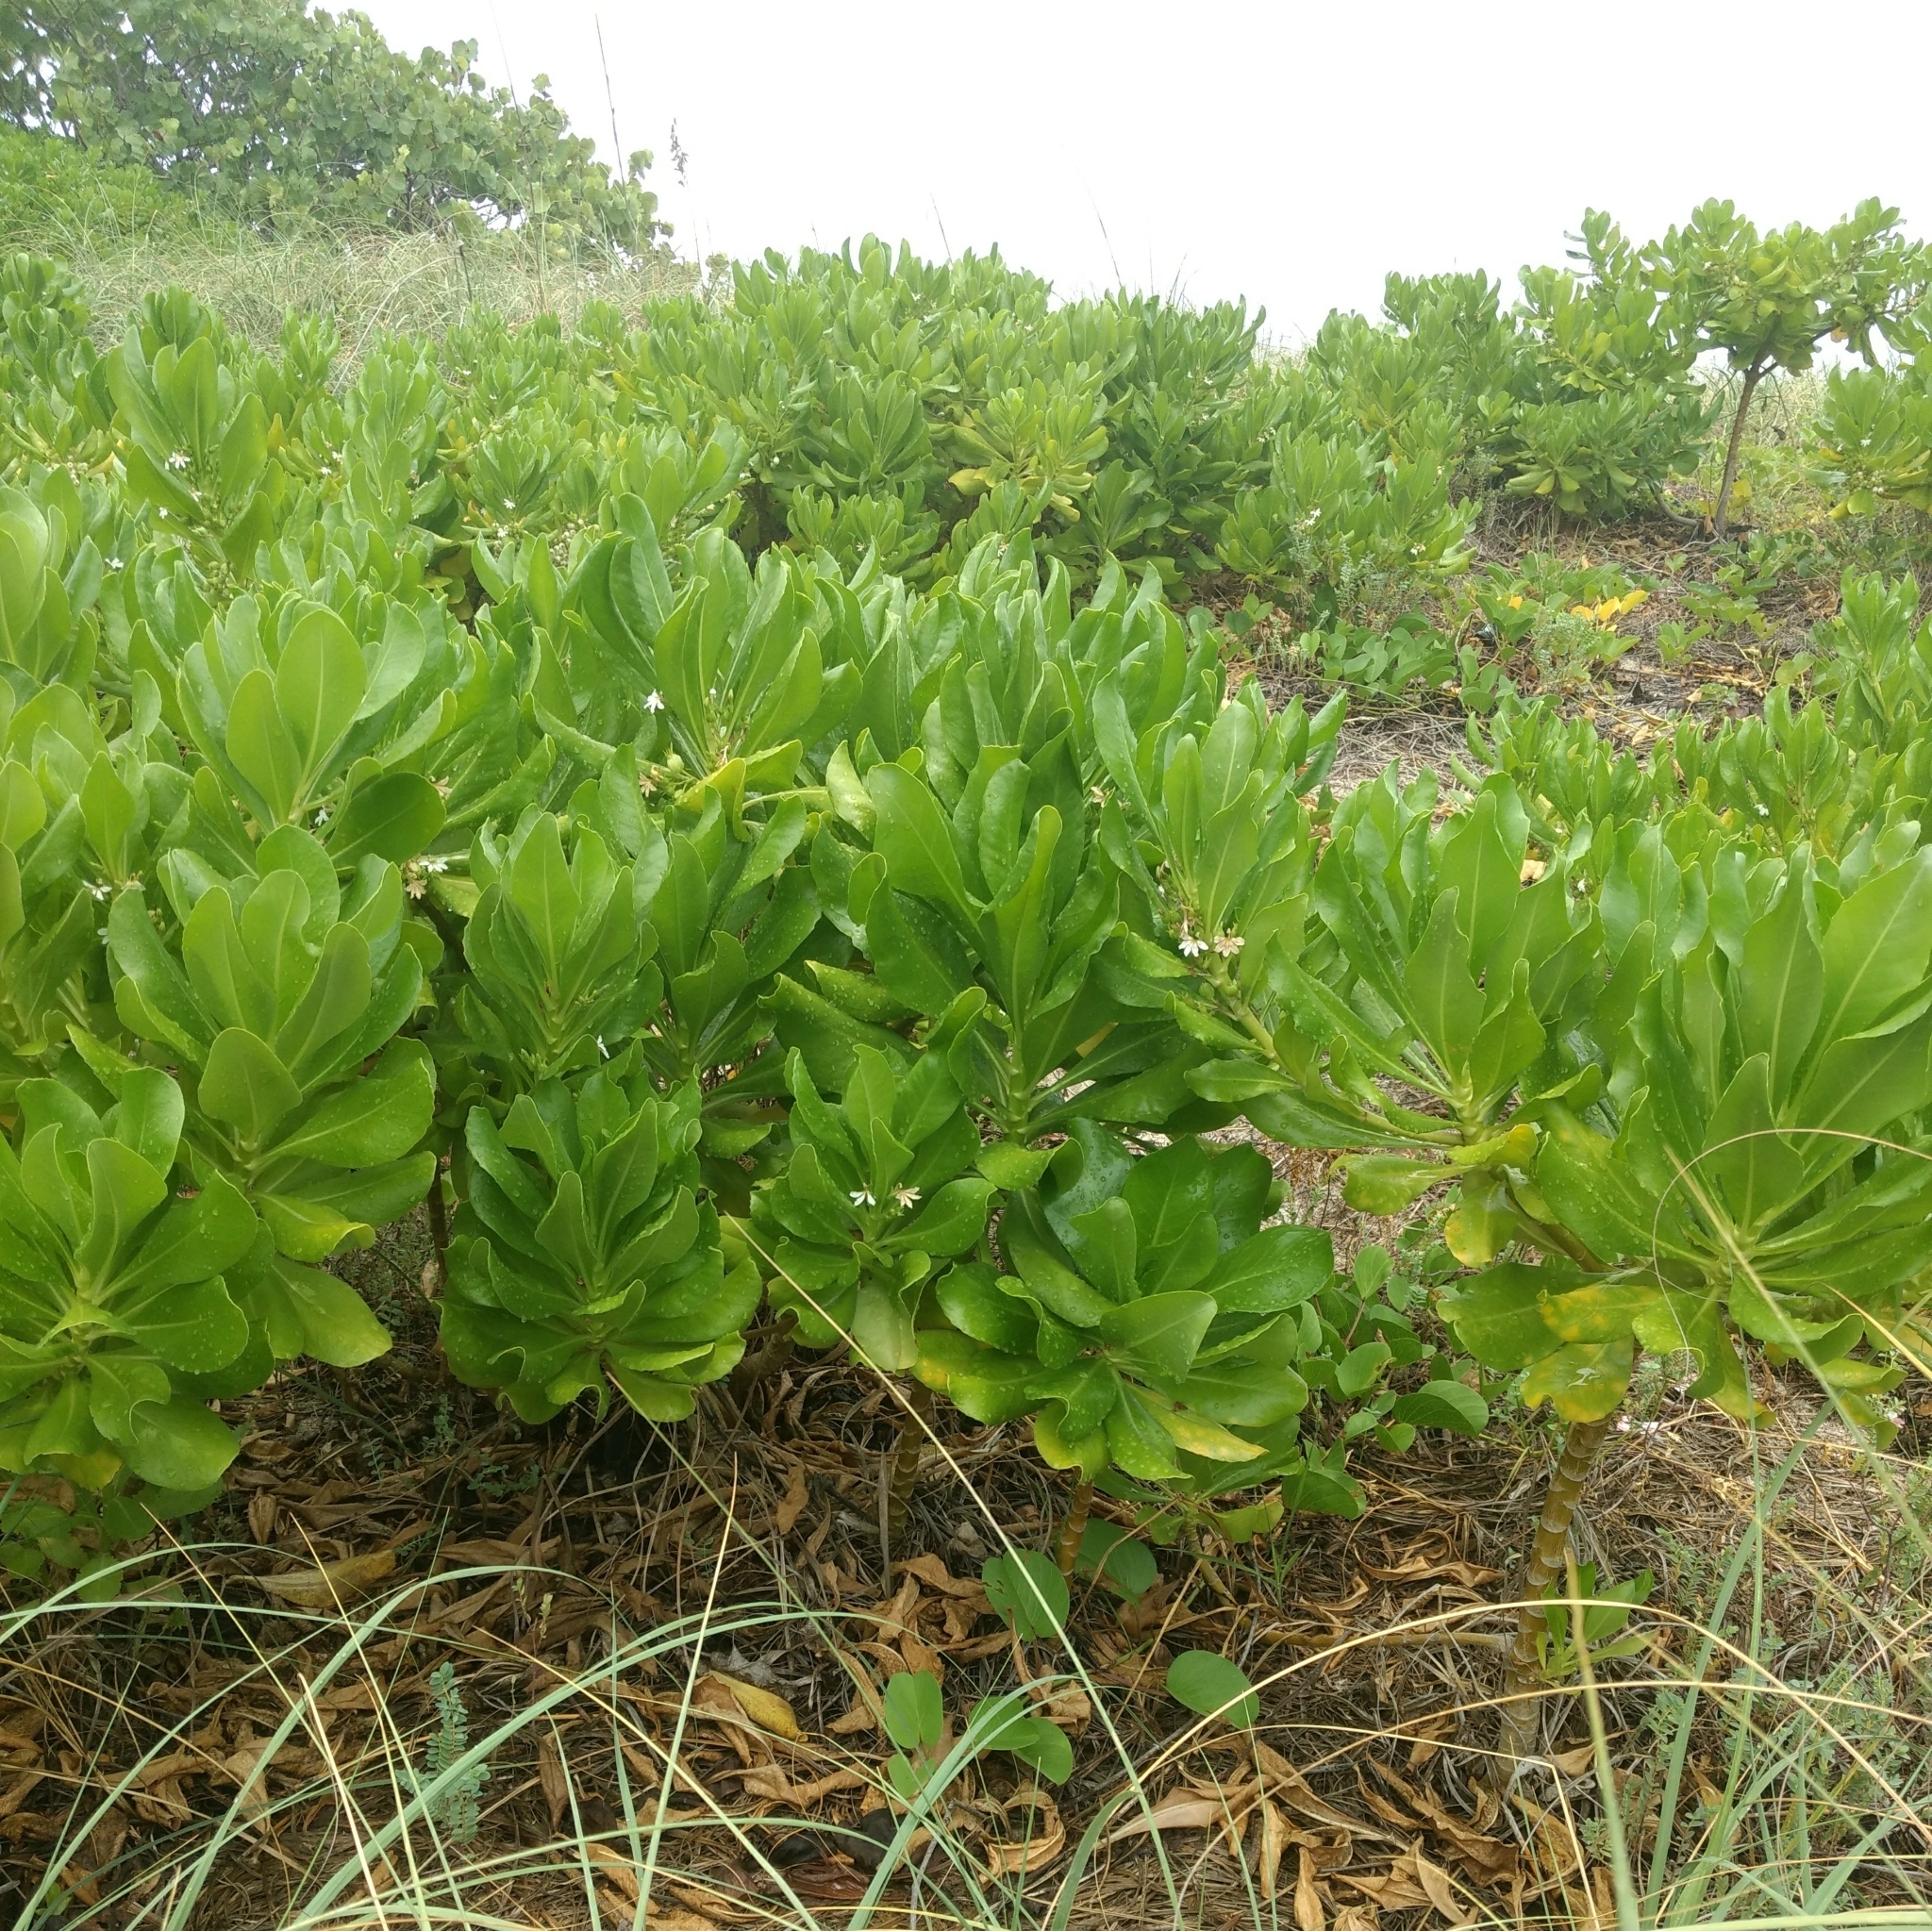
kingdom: Plantae
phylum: Tracheophyta
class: Magnoliopsida
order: Asterales
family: Goodeniaceae
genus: Scaevola
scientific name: Scaevola taccada
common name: Sea lettucetree
